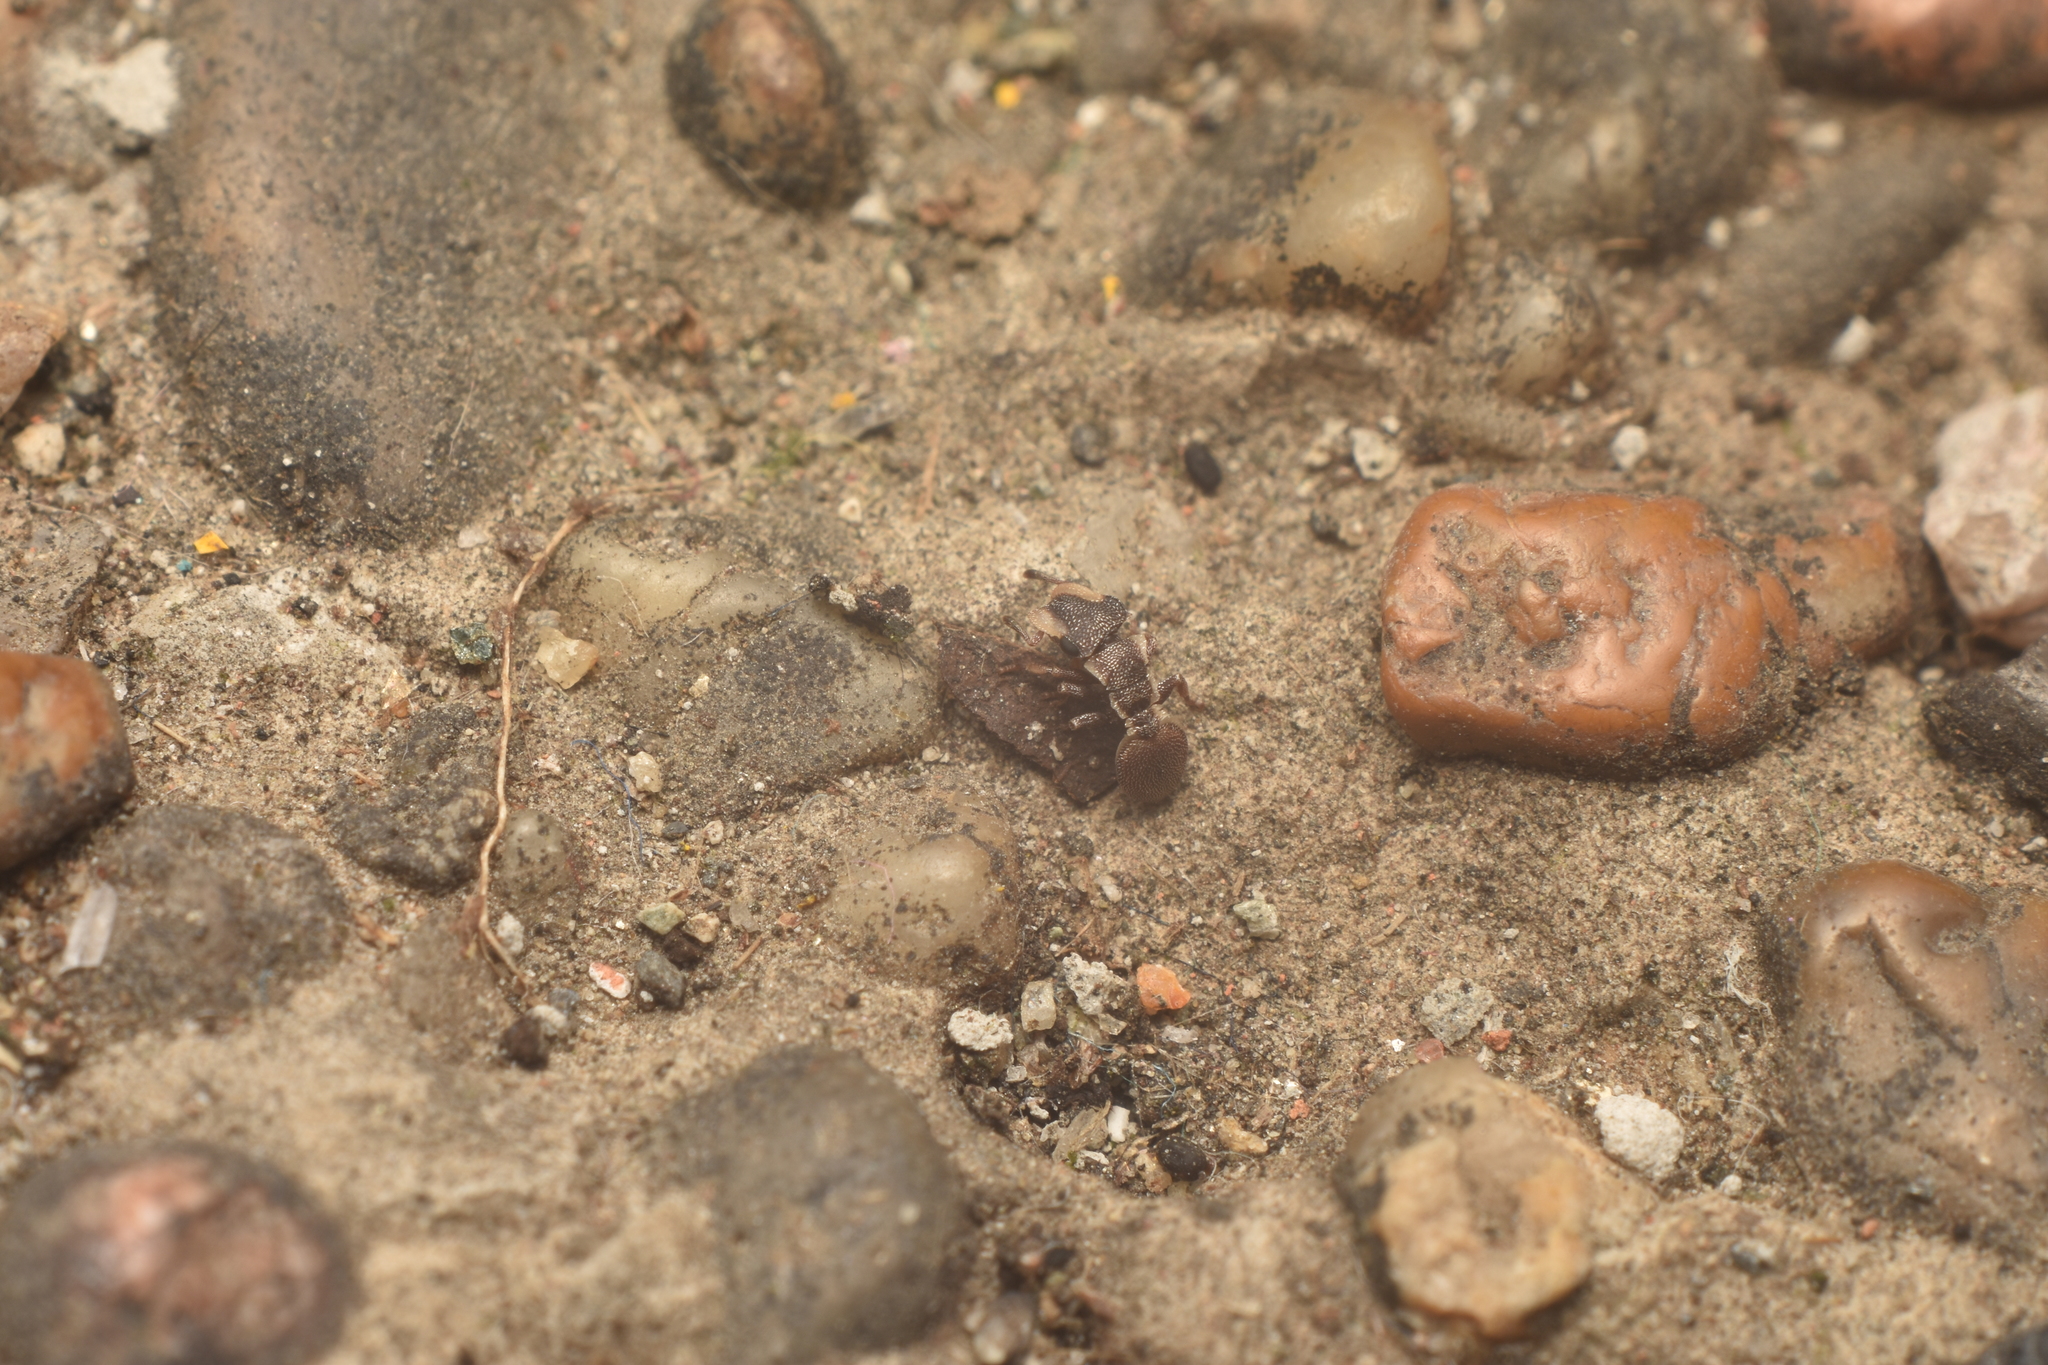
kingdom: Animalia
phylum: Arthropoda
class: Insecta
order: Hymenoptera
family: Formicidae
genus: Cephalotes
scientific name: Cephalotes maculatus
